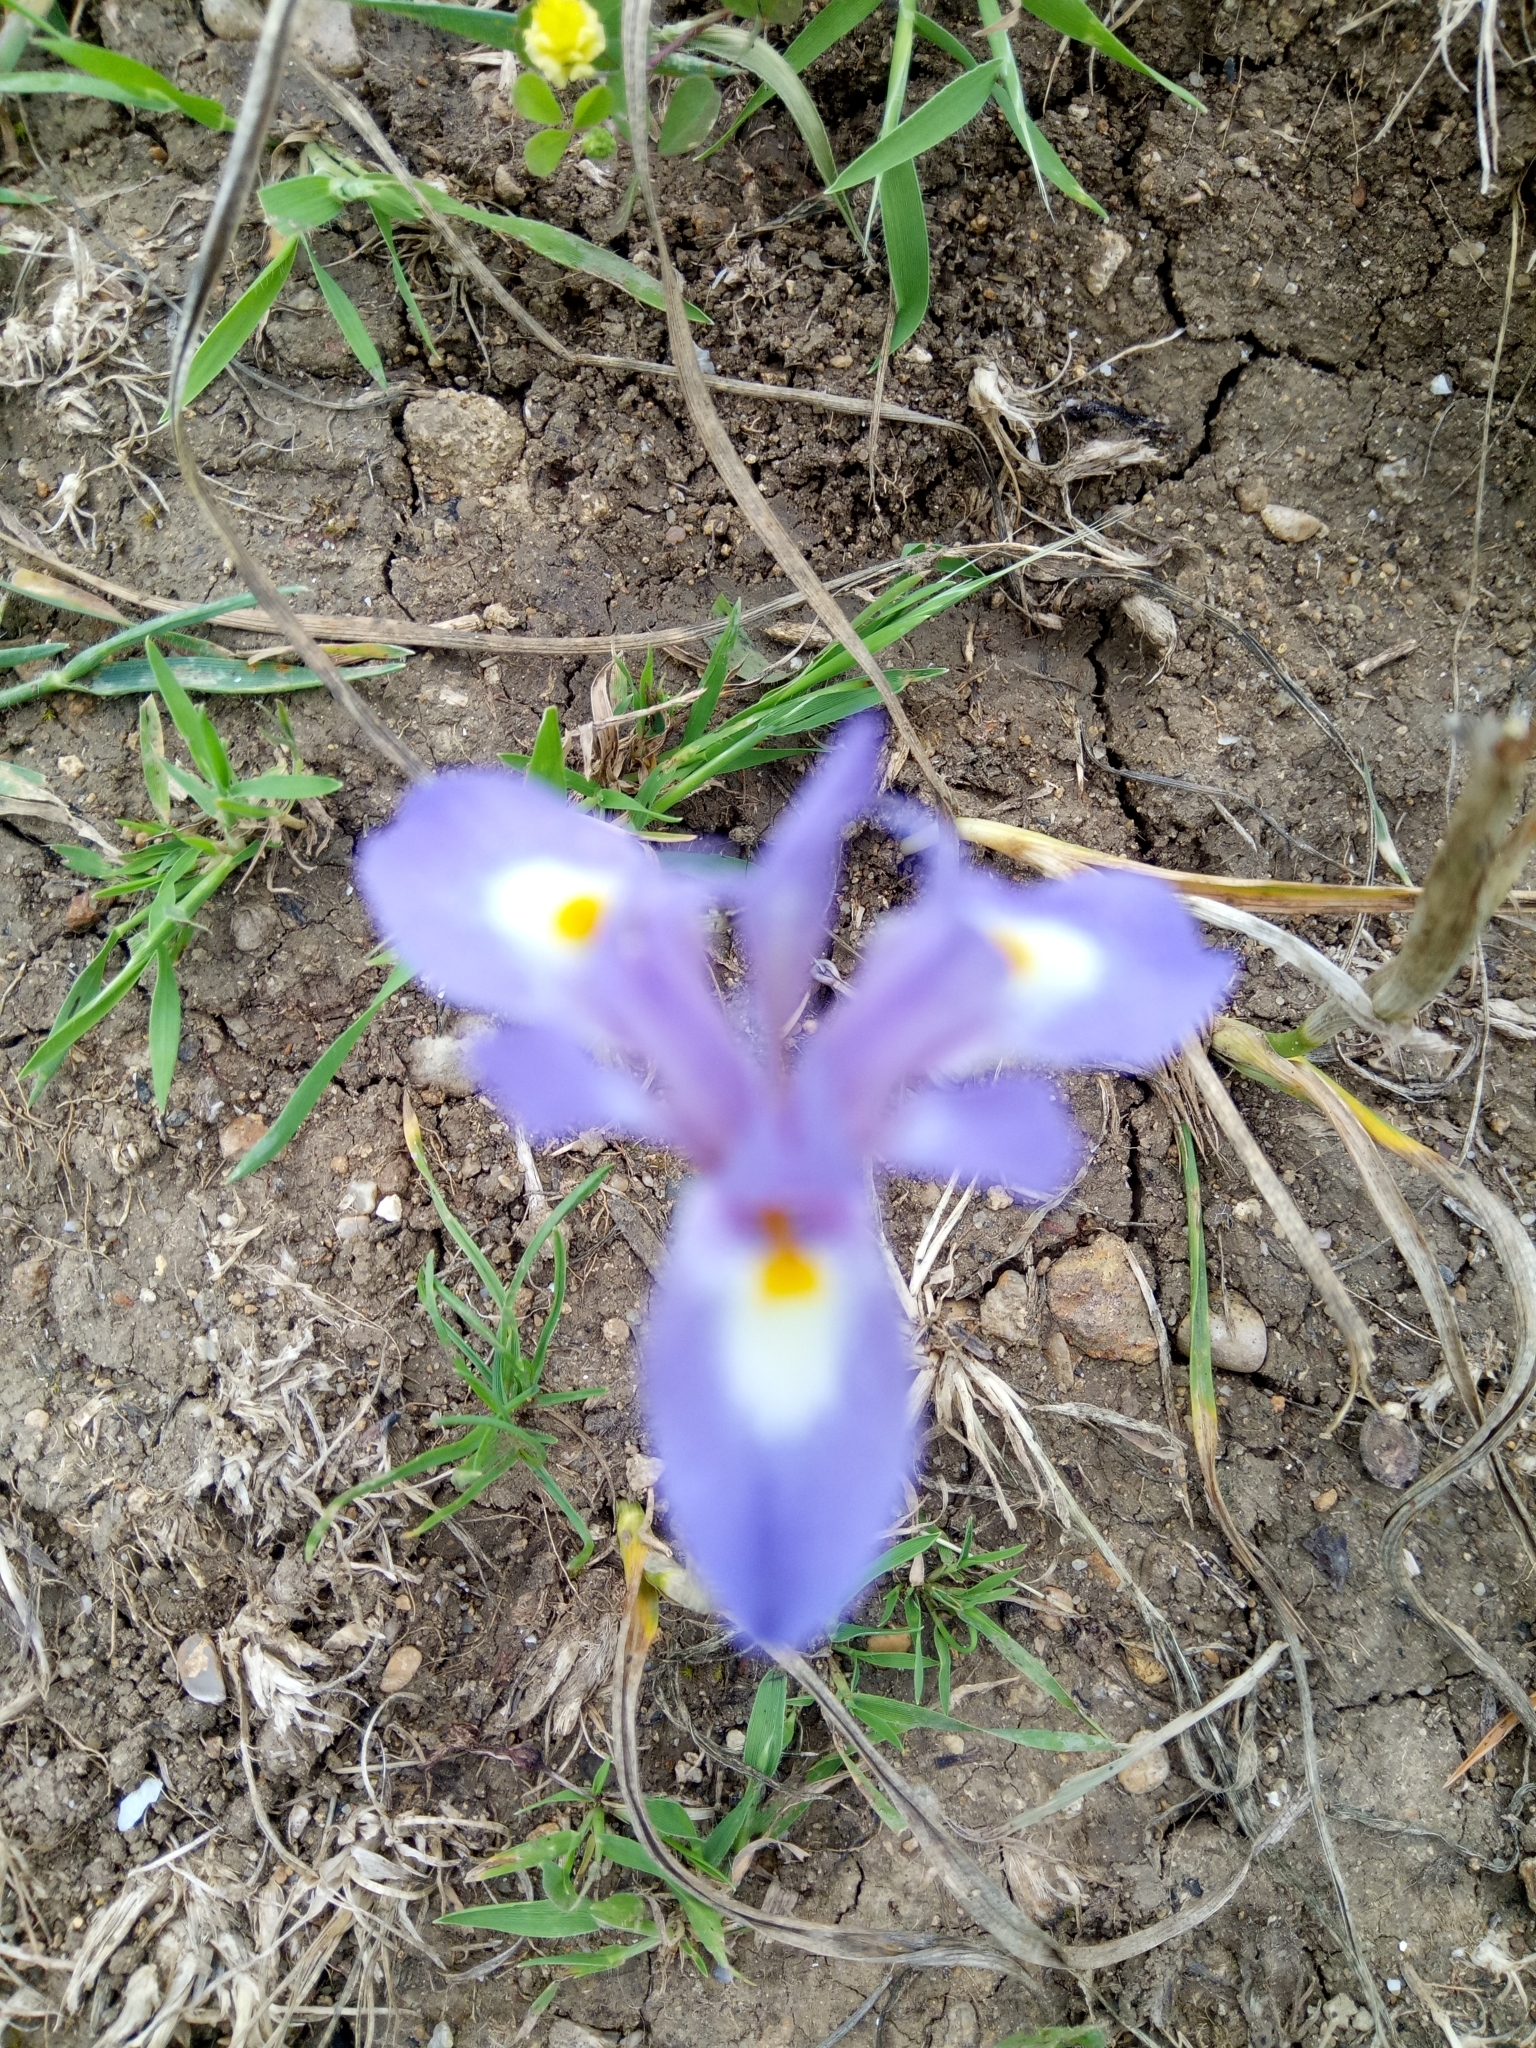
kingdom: Plantae
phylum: Tracheophyta
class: Liliopsida
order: Asparagales
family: Iridaceae
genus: Moraea
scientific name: Moraea sisyrinchium
